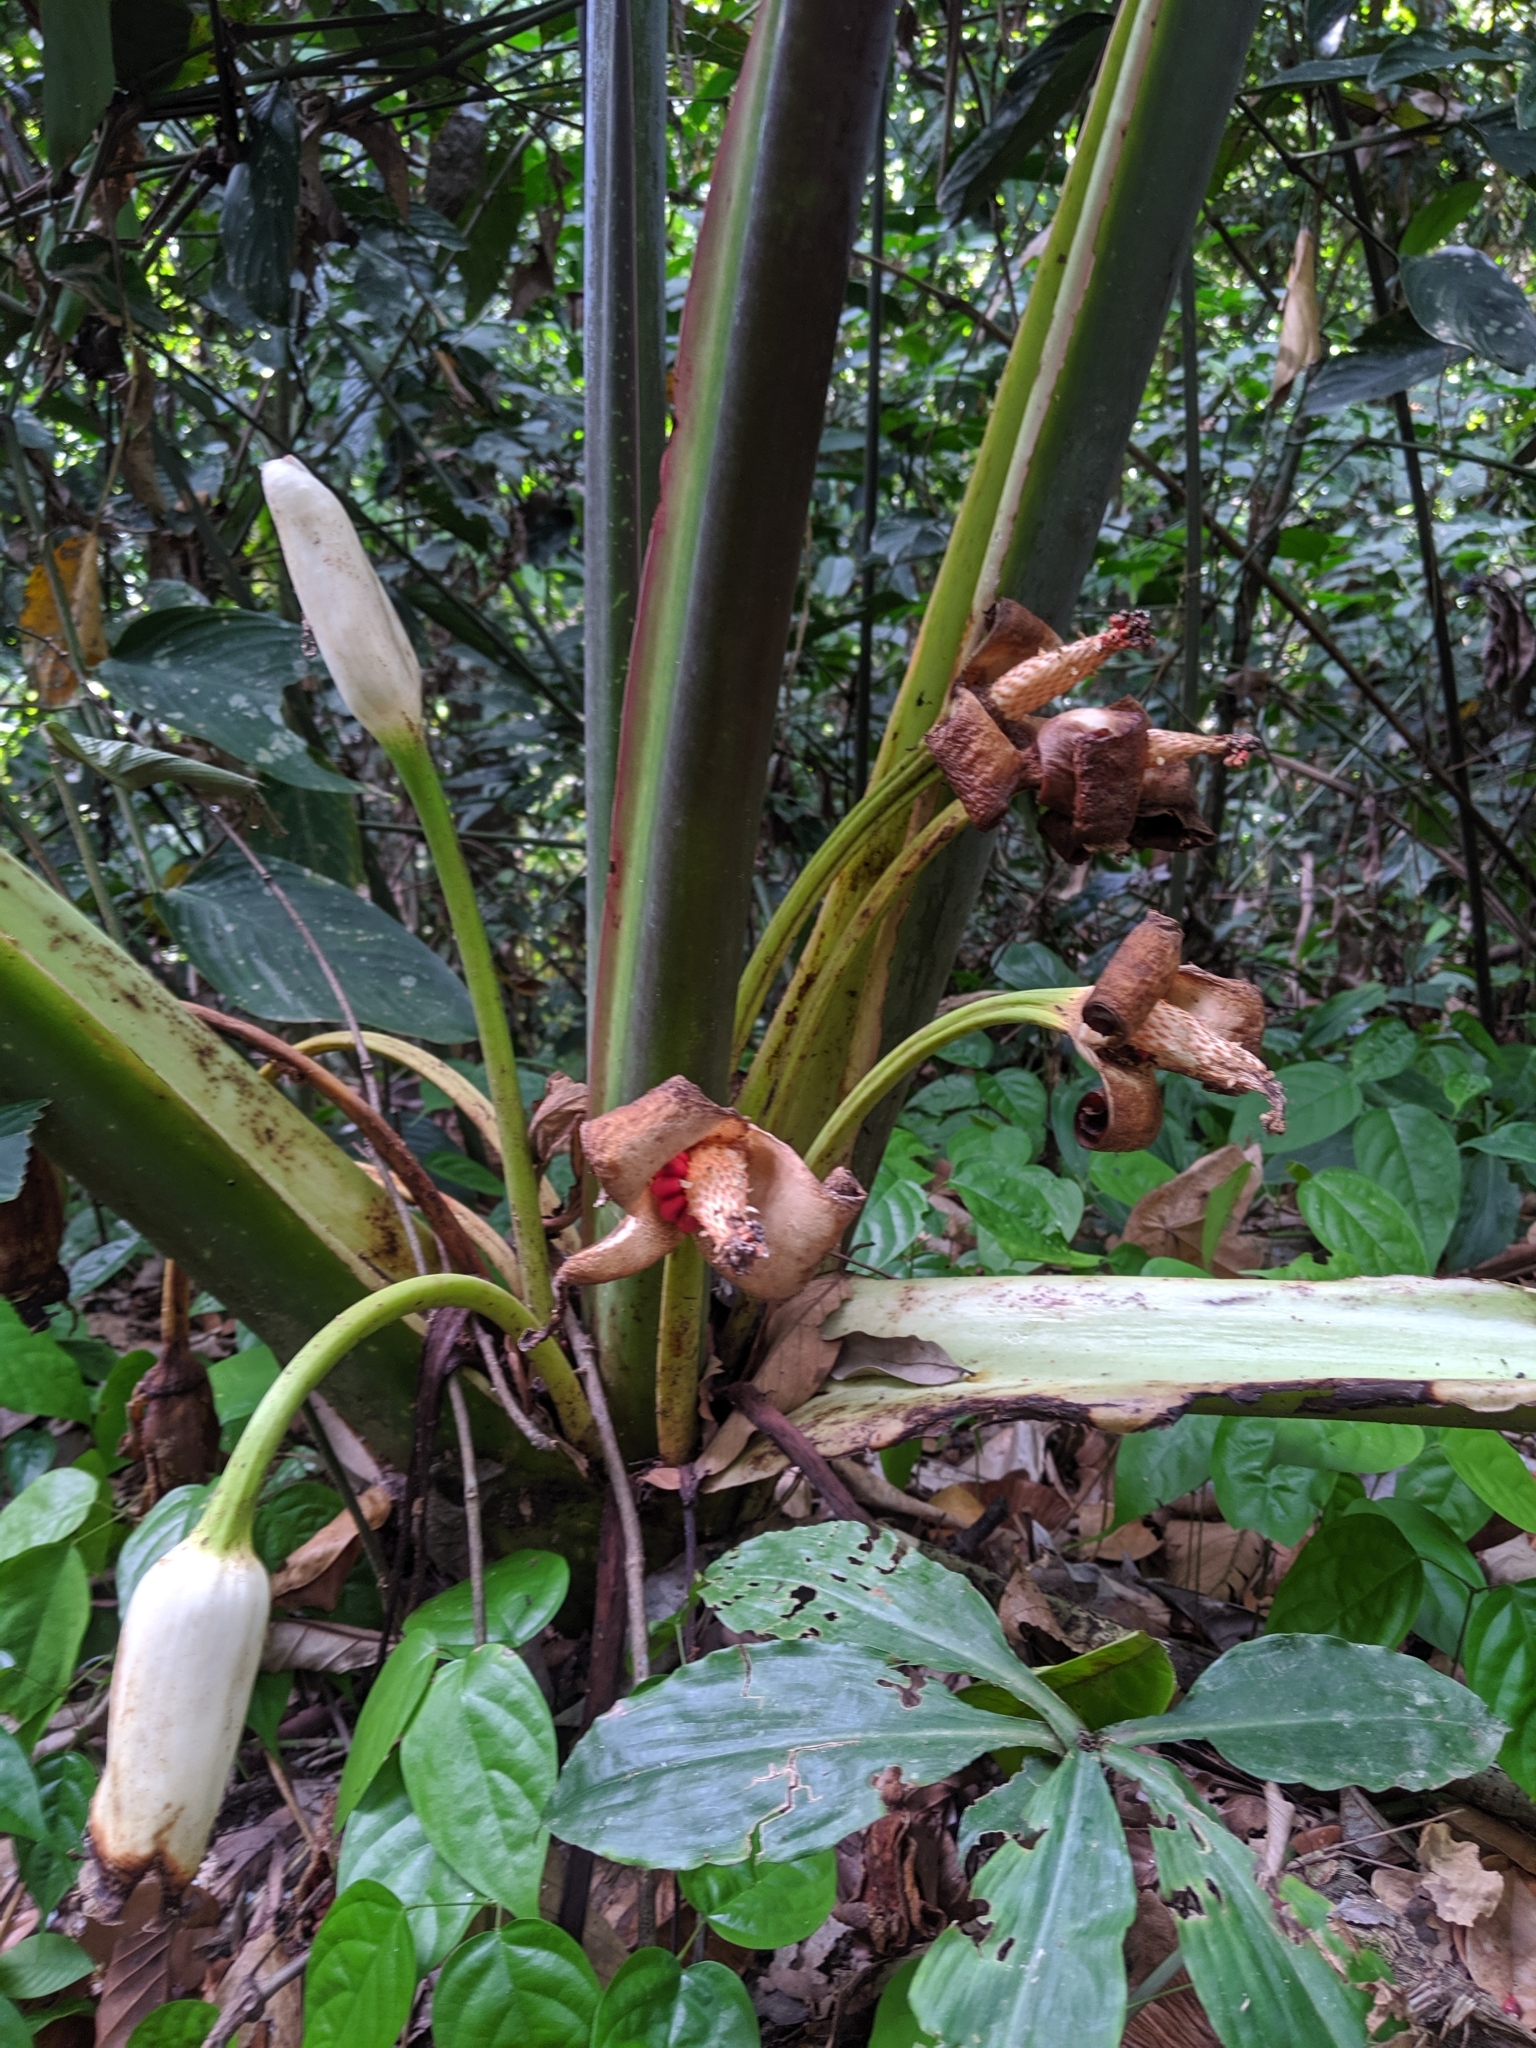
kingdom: Plantae
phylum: Tracheophyta
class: Liliopsida
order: Alismatales
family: Araceae
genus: Alocasia
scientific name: Alocasia robusta
